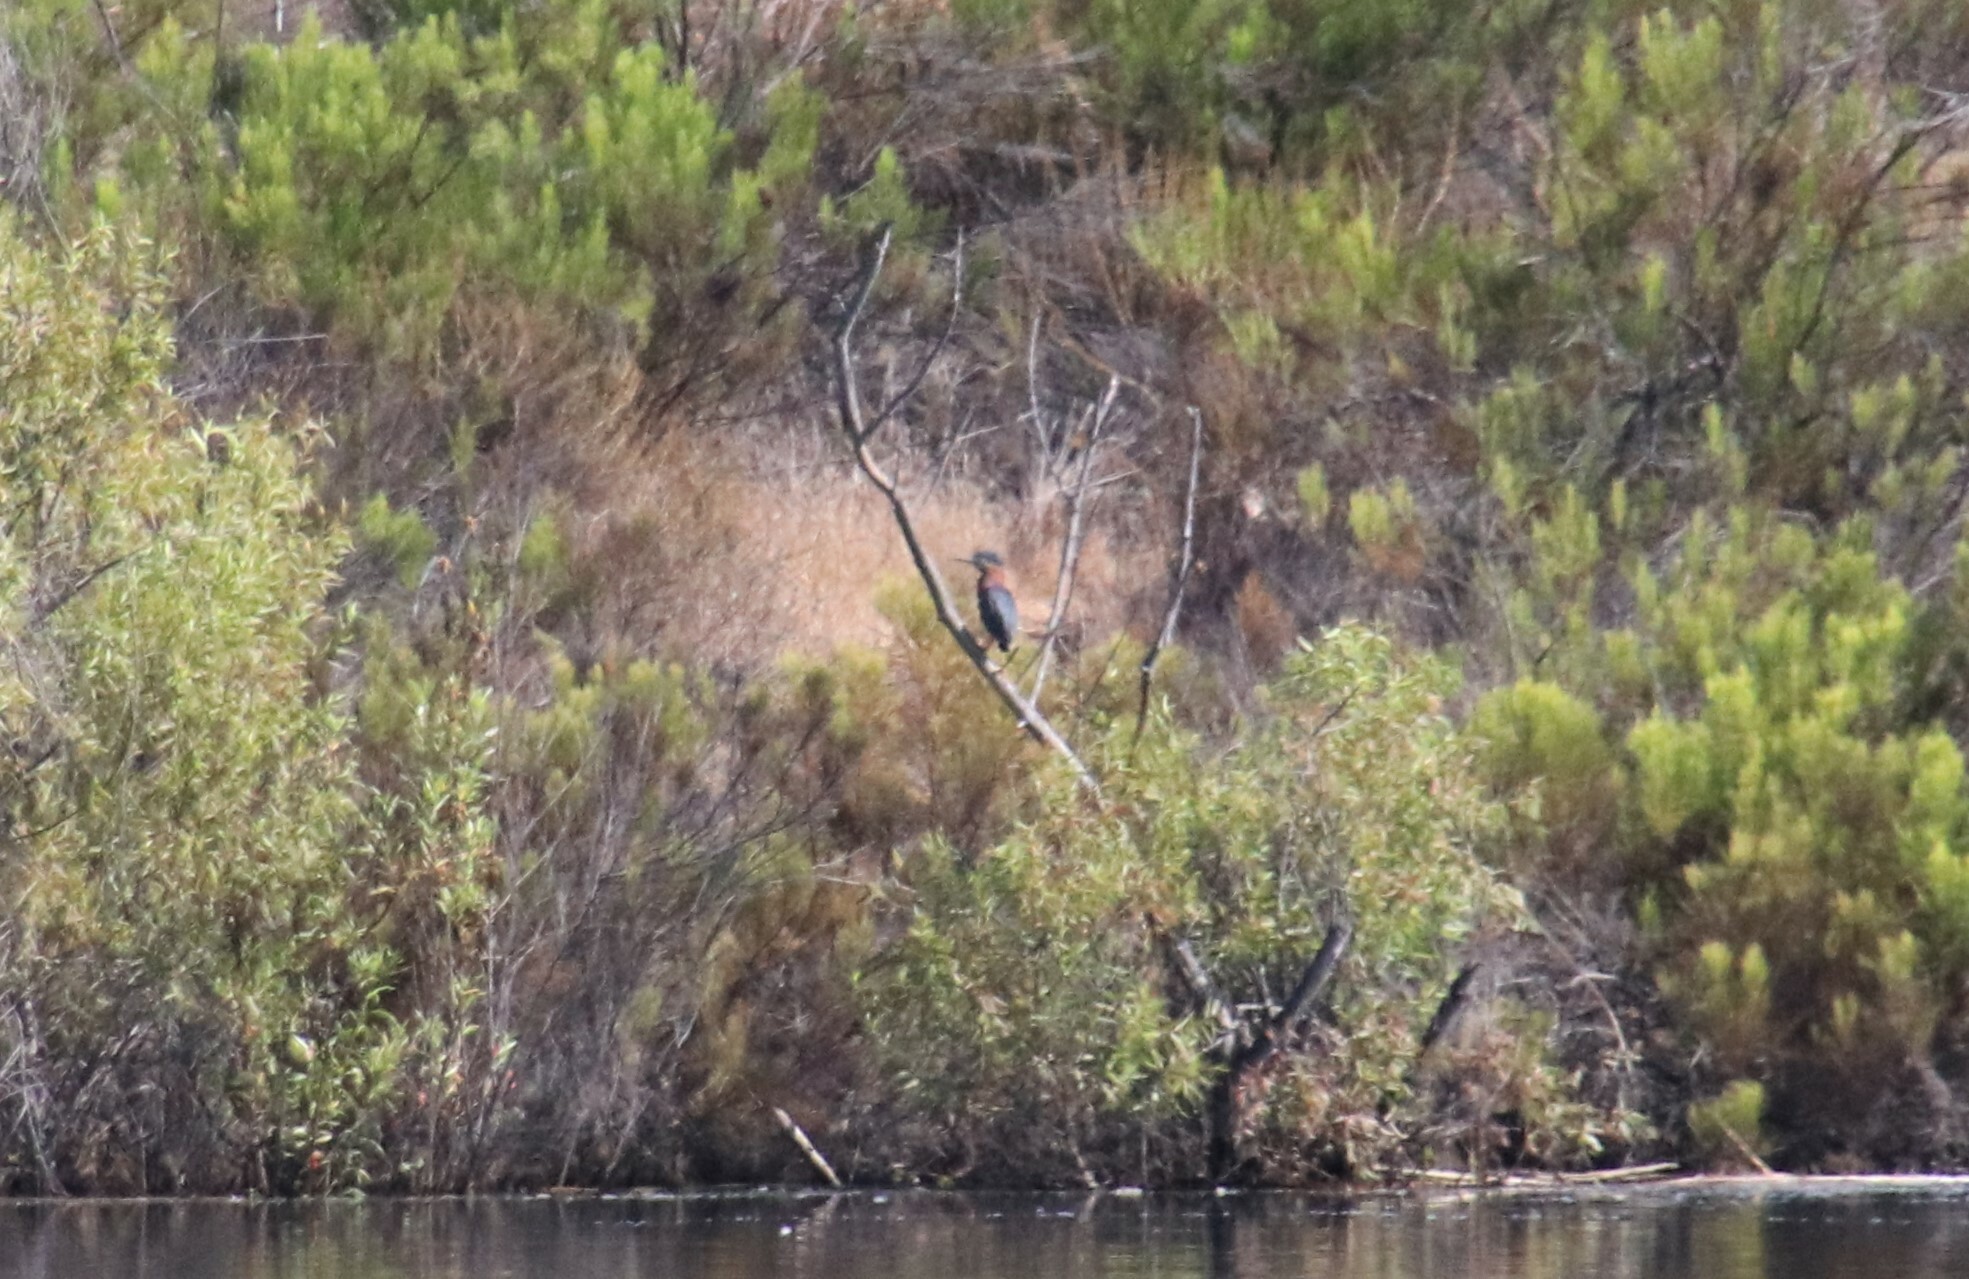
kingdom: Animalia
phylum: Chordata
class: Aves
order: Pelecaniformes
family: Ardeidae
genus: Butorides
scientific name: Butorides virescens
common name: Green heron
